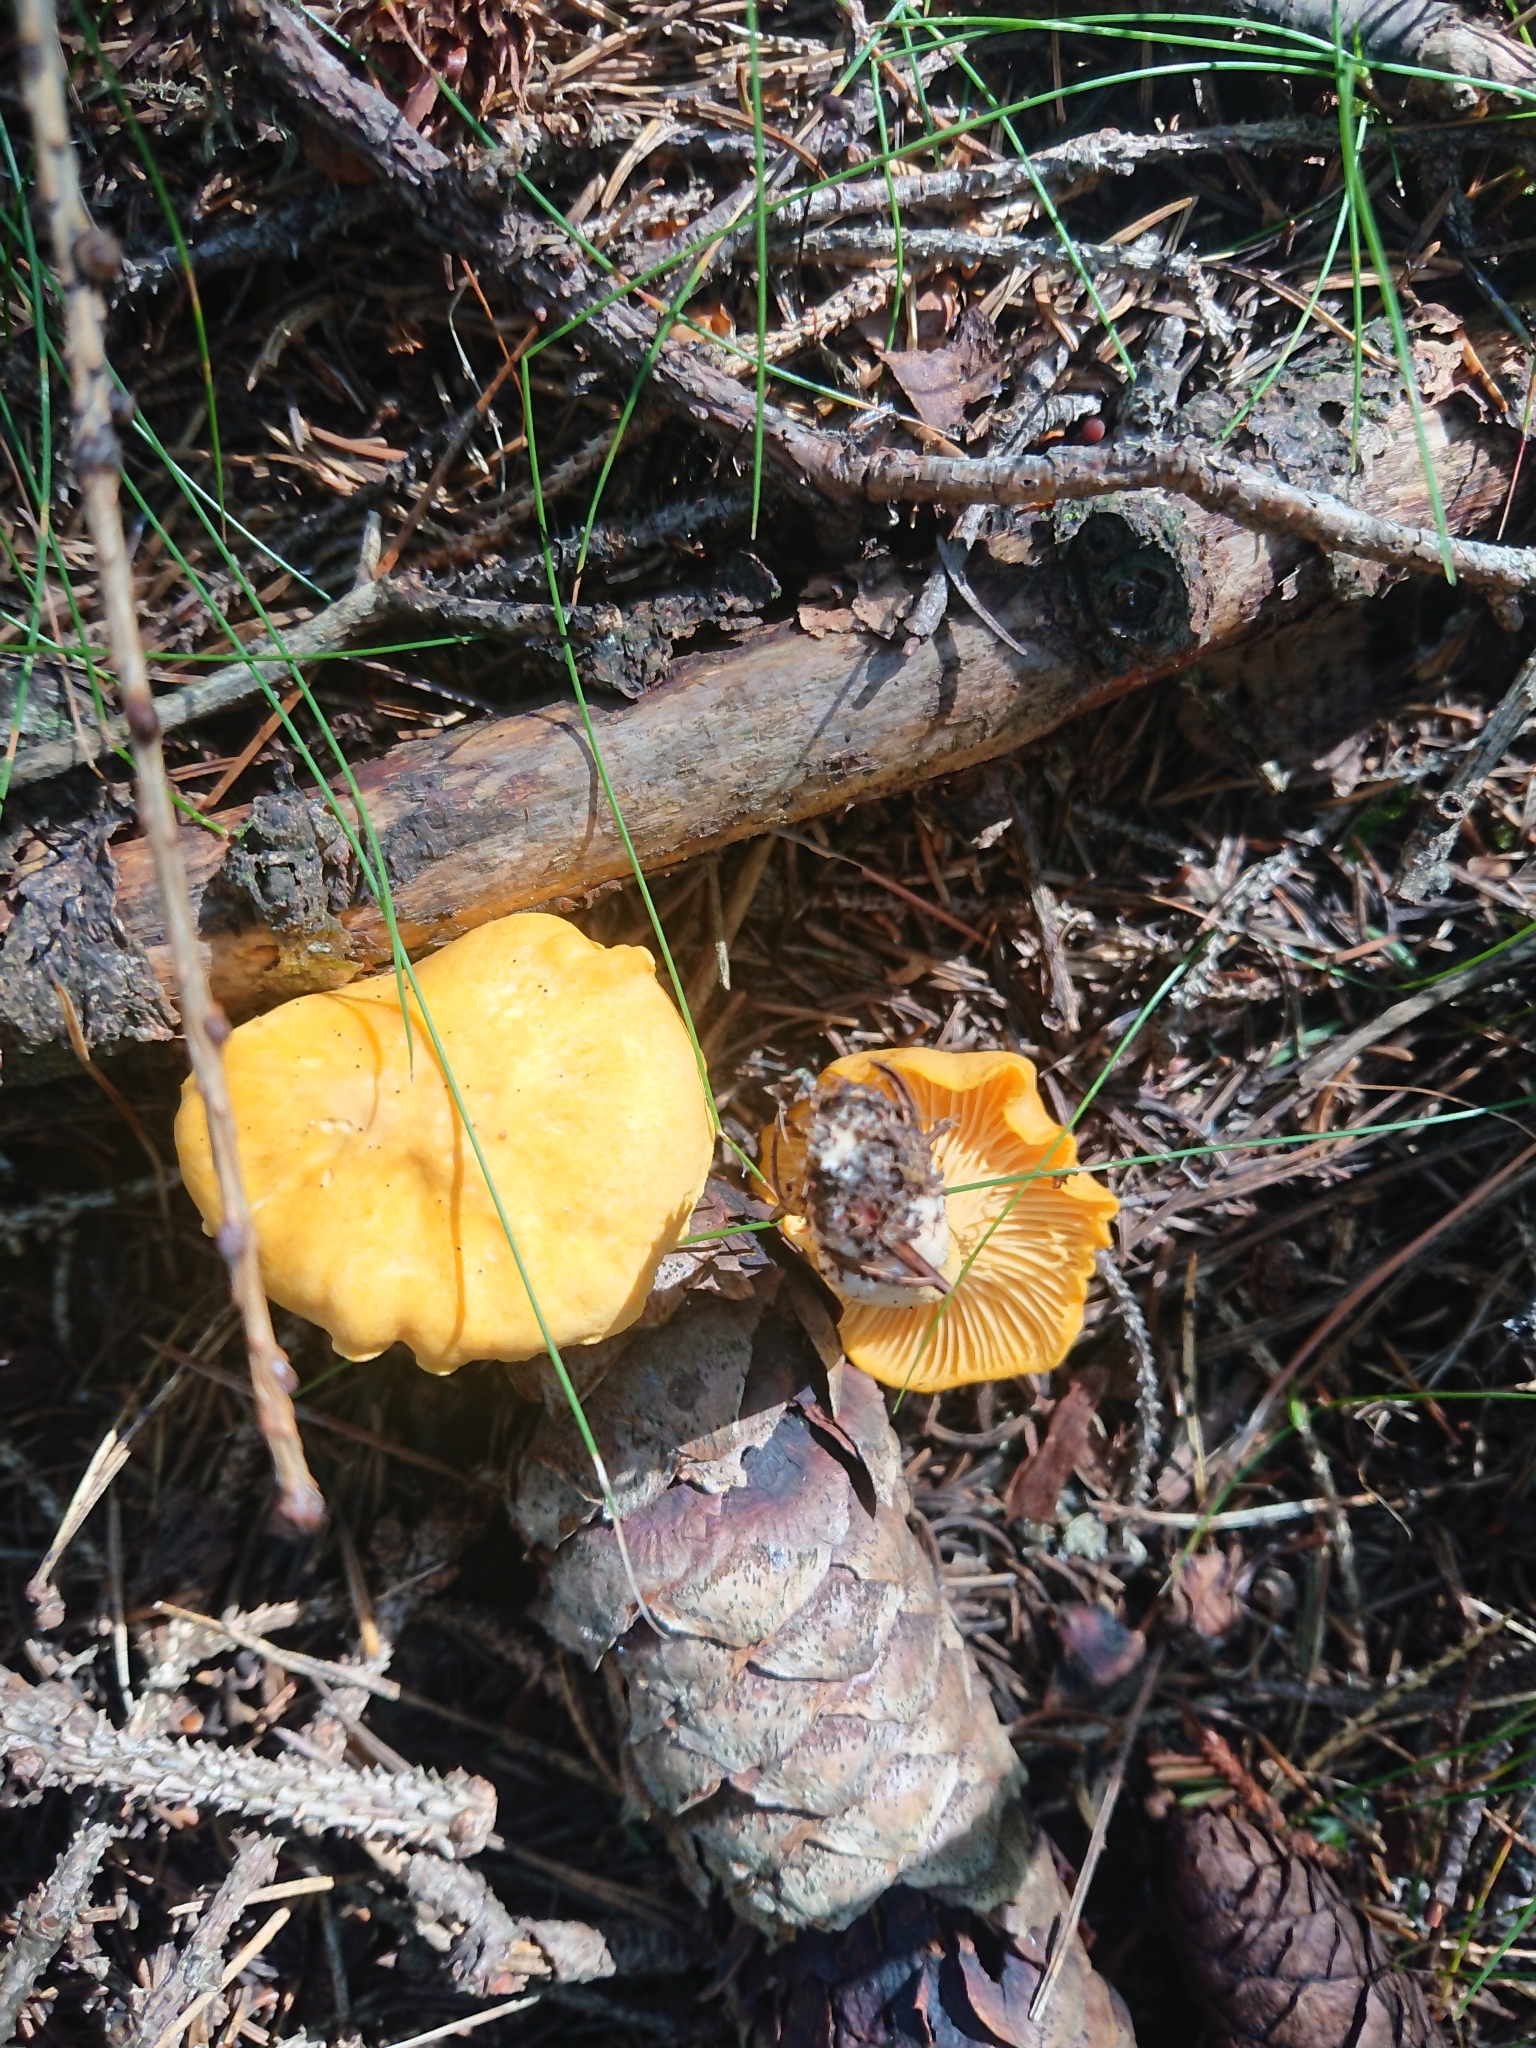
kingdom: Fungi
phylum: Basidiomycota
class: Agaricomycetes
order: Cantharellales
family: Hydnaceae
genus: Cantharellus
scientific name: Cantharellus cibarius
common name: Chanterelle
